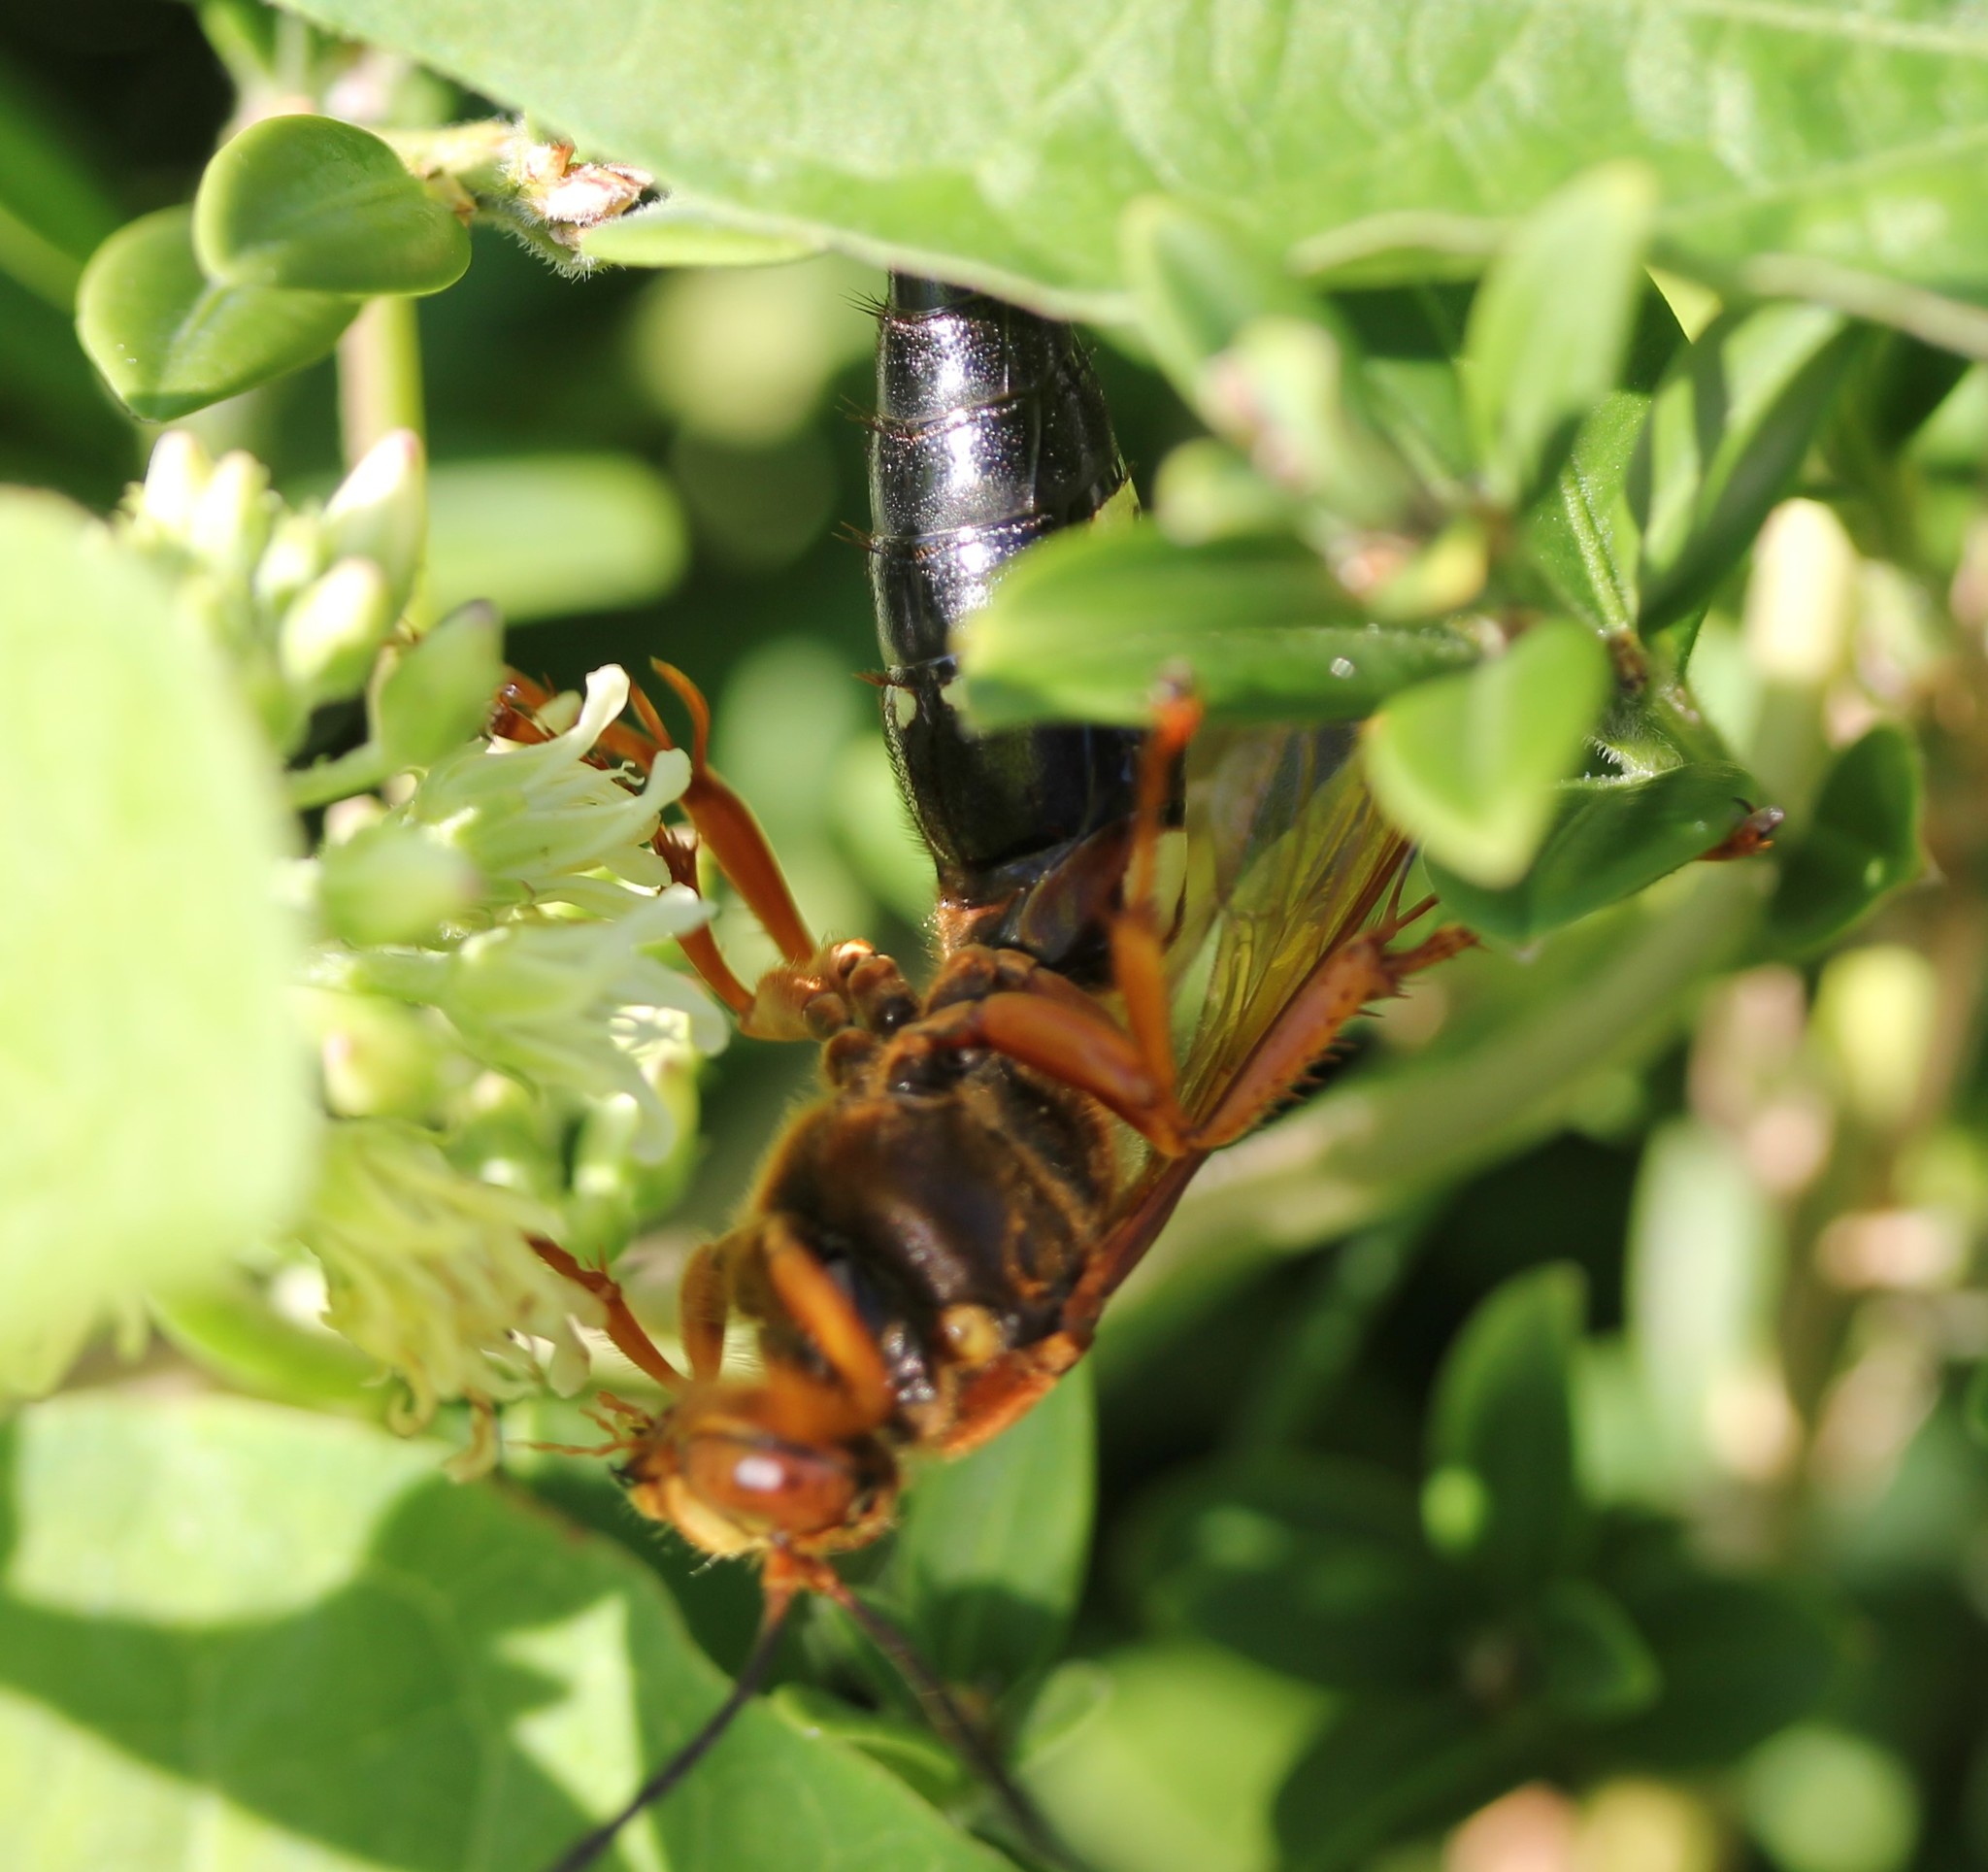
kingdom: Animalia
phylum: Arthropoda
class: Insecta
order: Hymenoptera
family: Crabronidae
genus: Sphecius
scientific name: Sphecius speciosus
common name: Cicada killer
